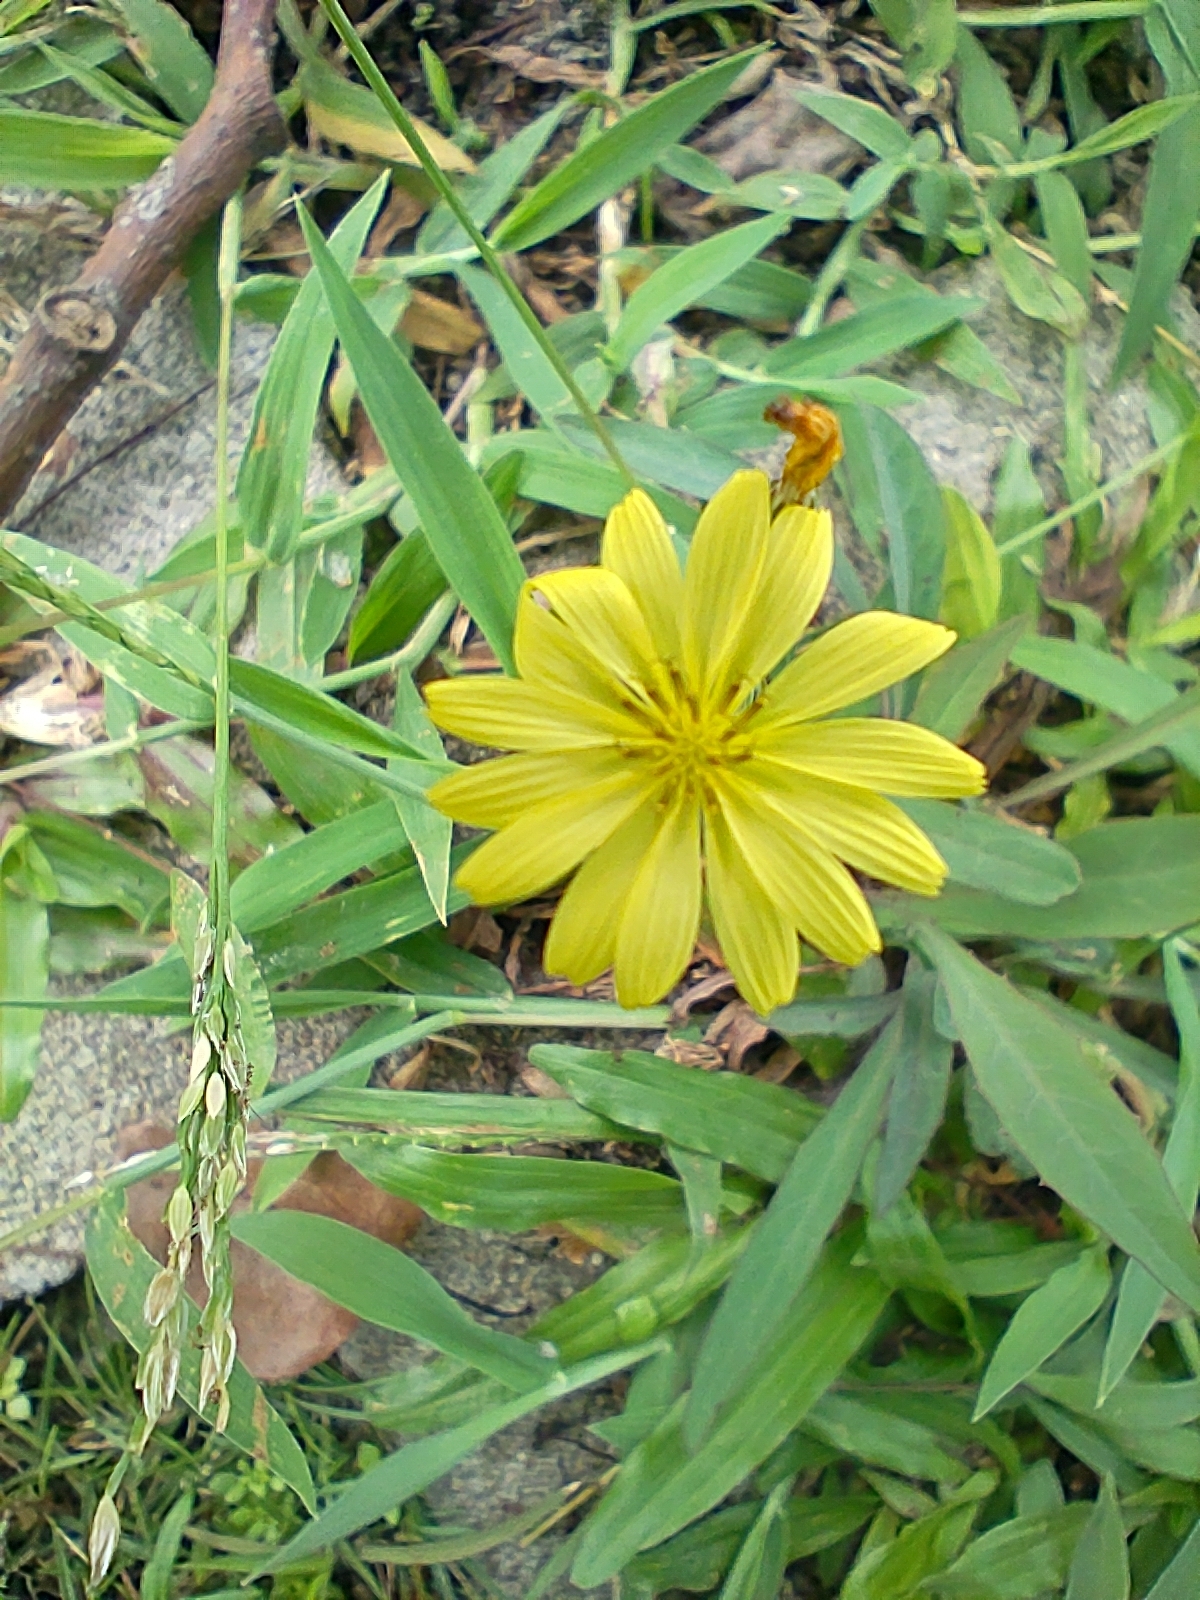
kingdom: Plantae
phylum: Tracheophyta
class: Magnoliopsida
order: Asterales
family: Asteraceae
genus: Ixeris
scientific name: Ixeris chinensis
